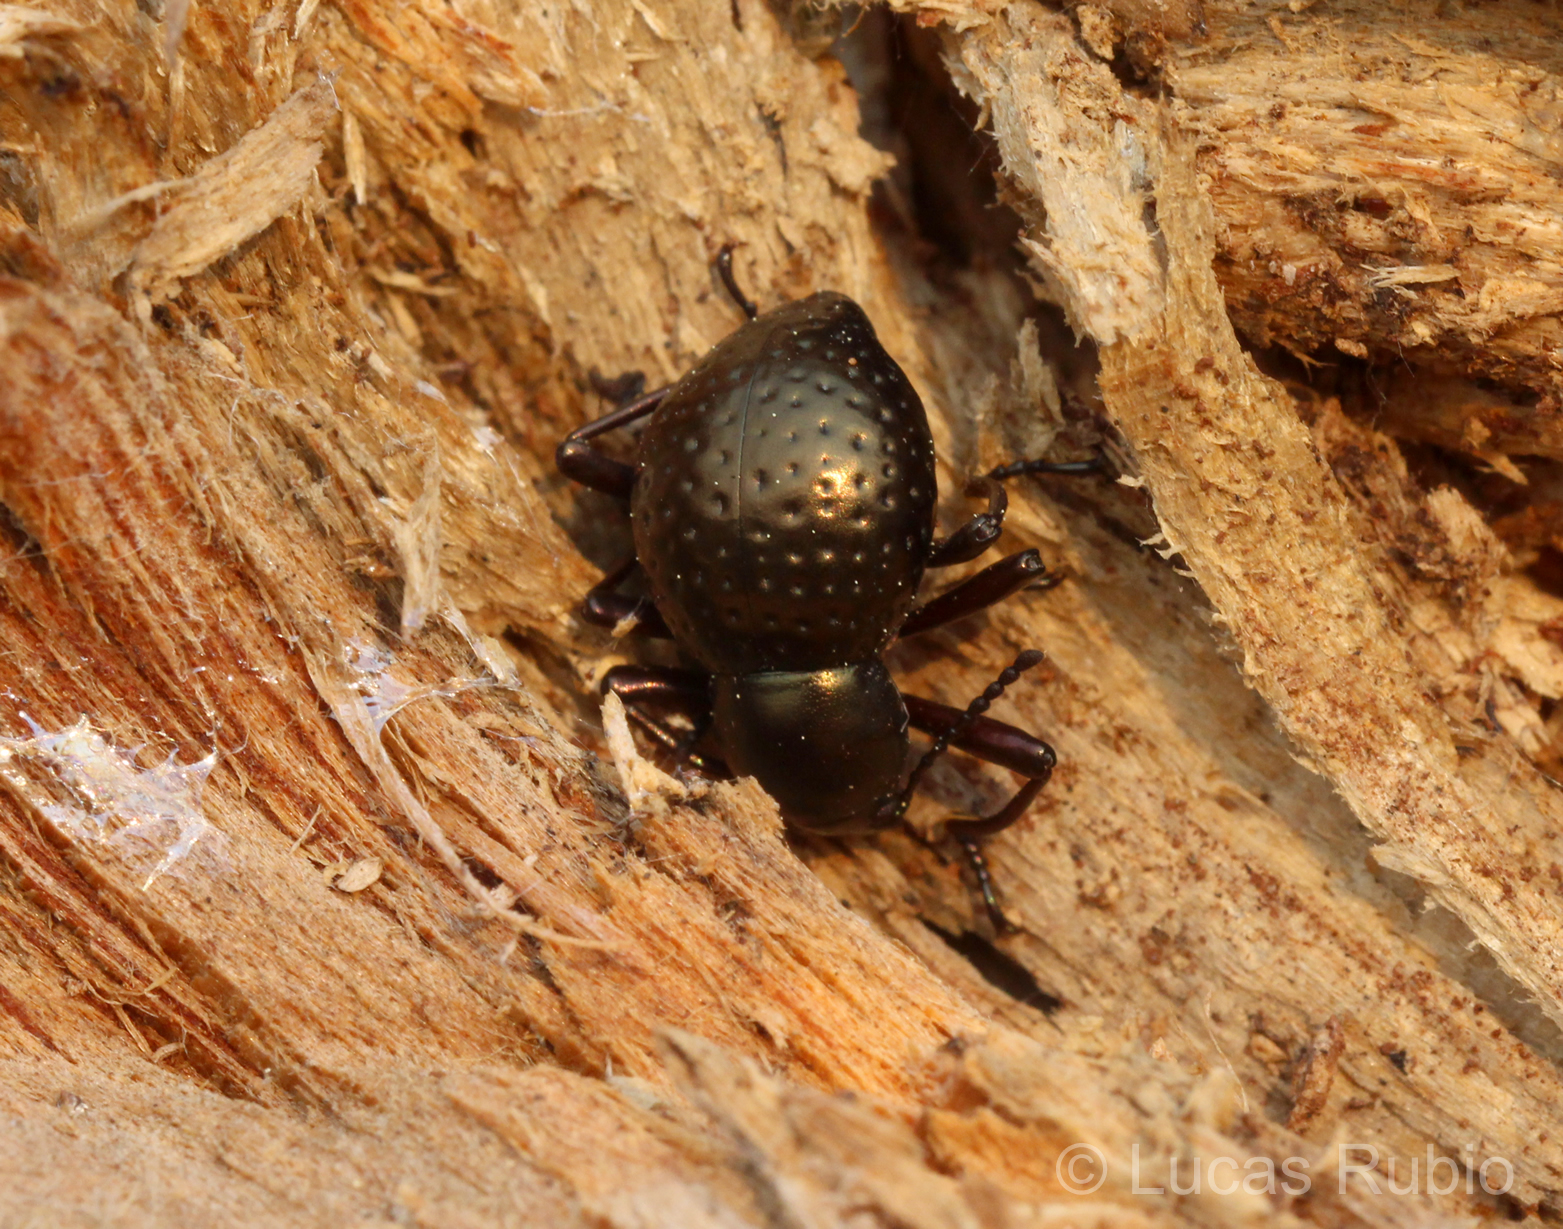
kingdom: Animalia
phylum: Arthropoda
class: Insecta
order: Coleoptera
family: Tenebrionidae
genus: Sphaerotus
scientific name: Sphaerotus
